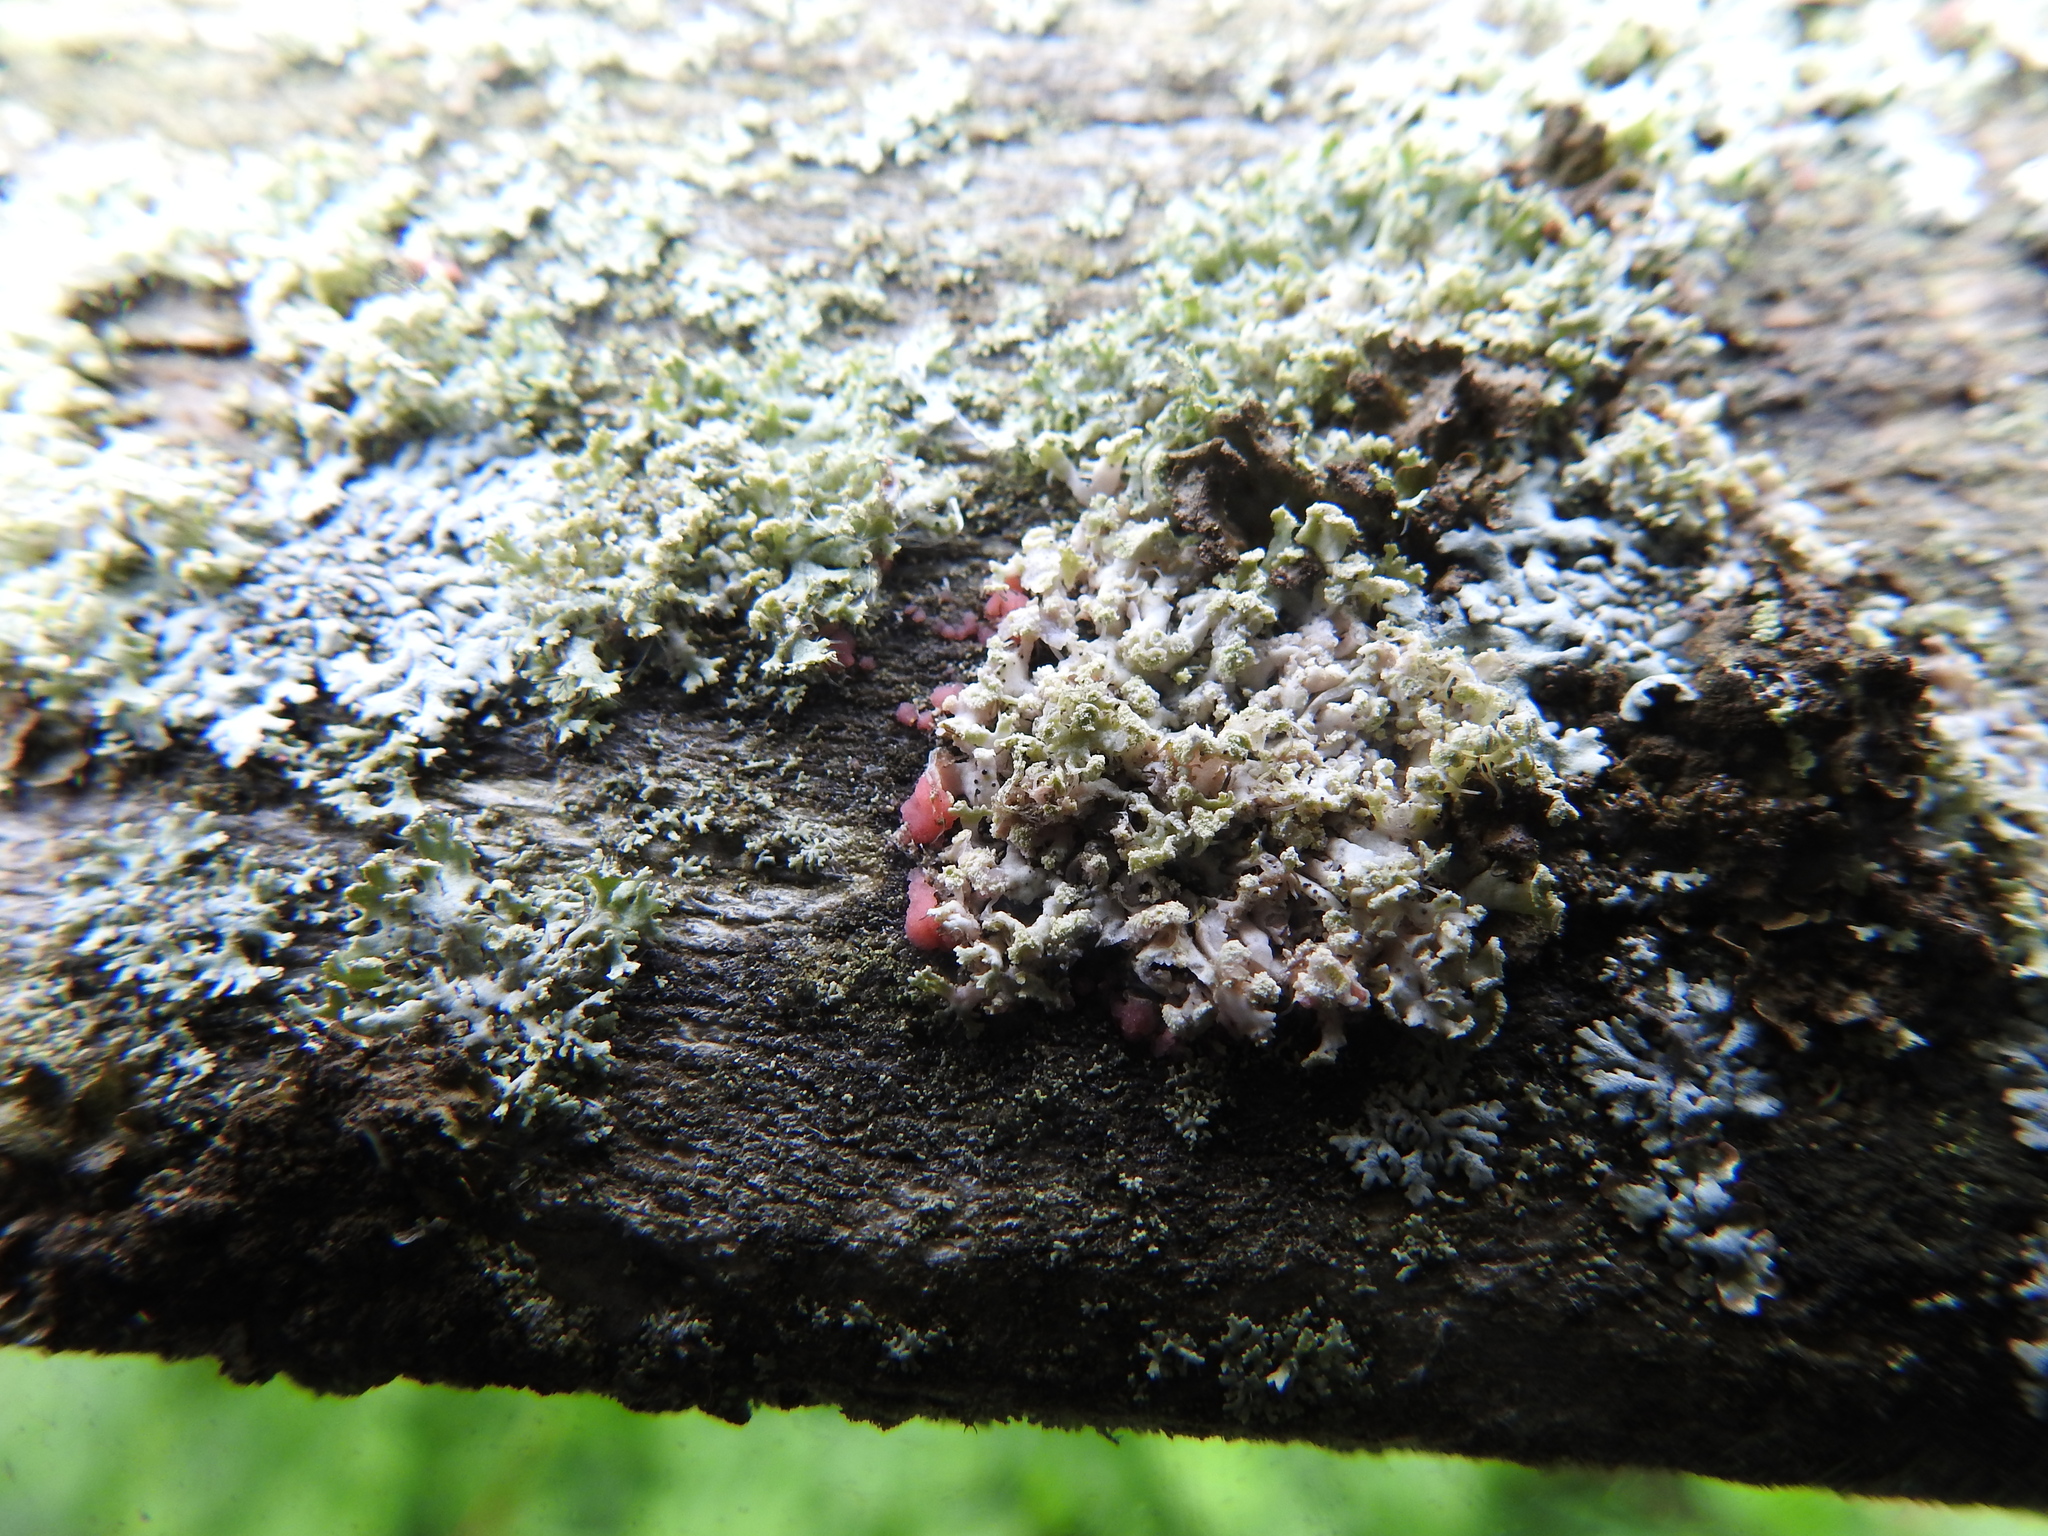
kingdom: Fungi
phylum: Ascomycota
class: Lecanoromycetes
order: Caliciales
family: Physciaceae
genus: Physcia
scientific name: Physcia tenella
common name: Fringed rosette lichen
